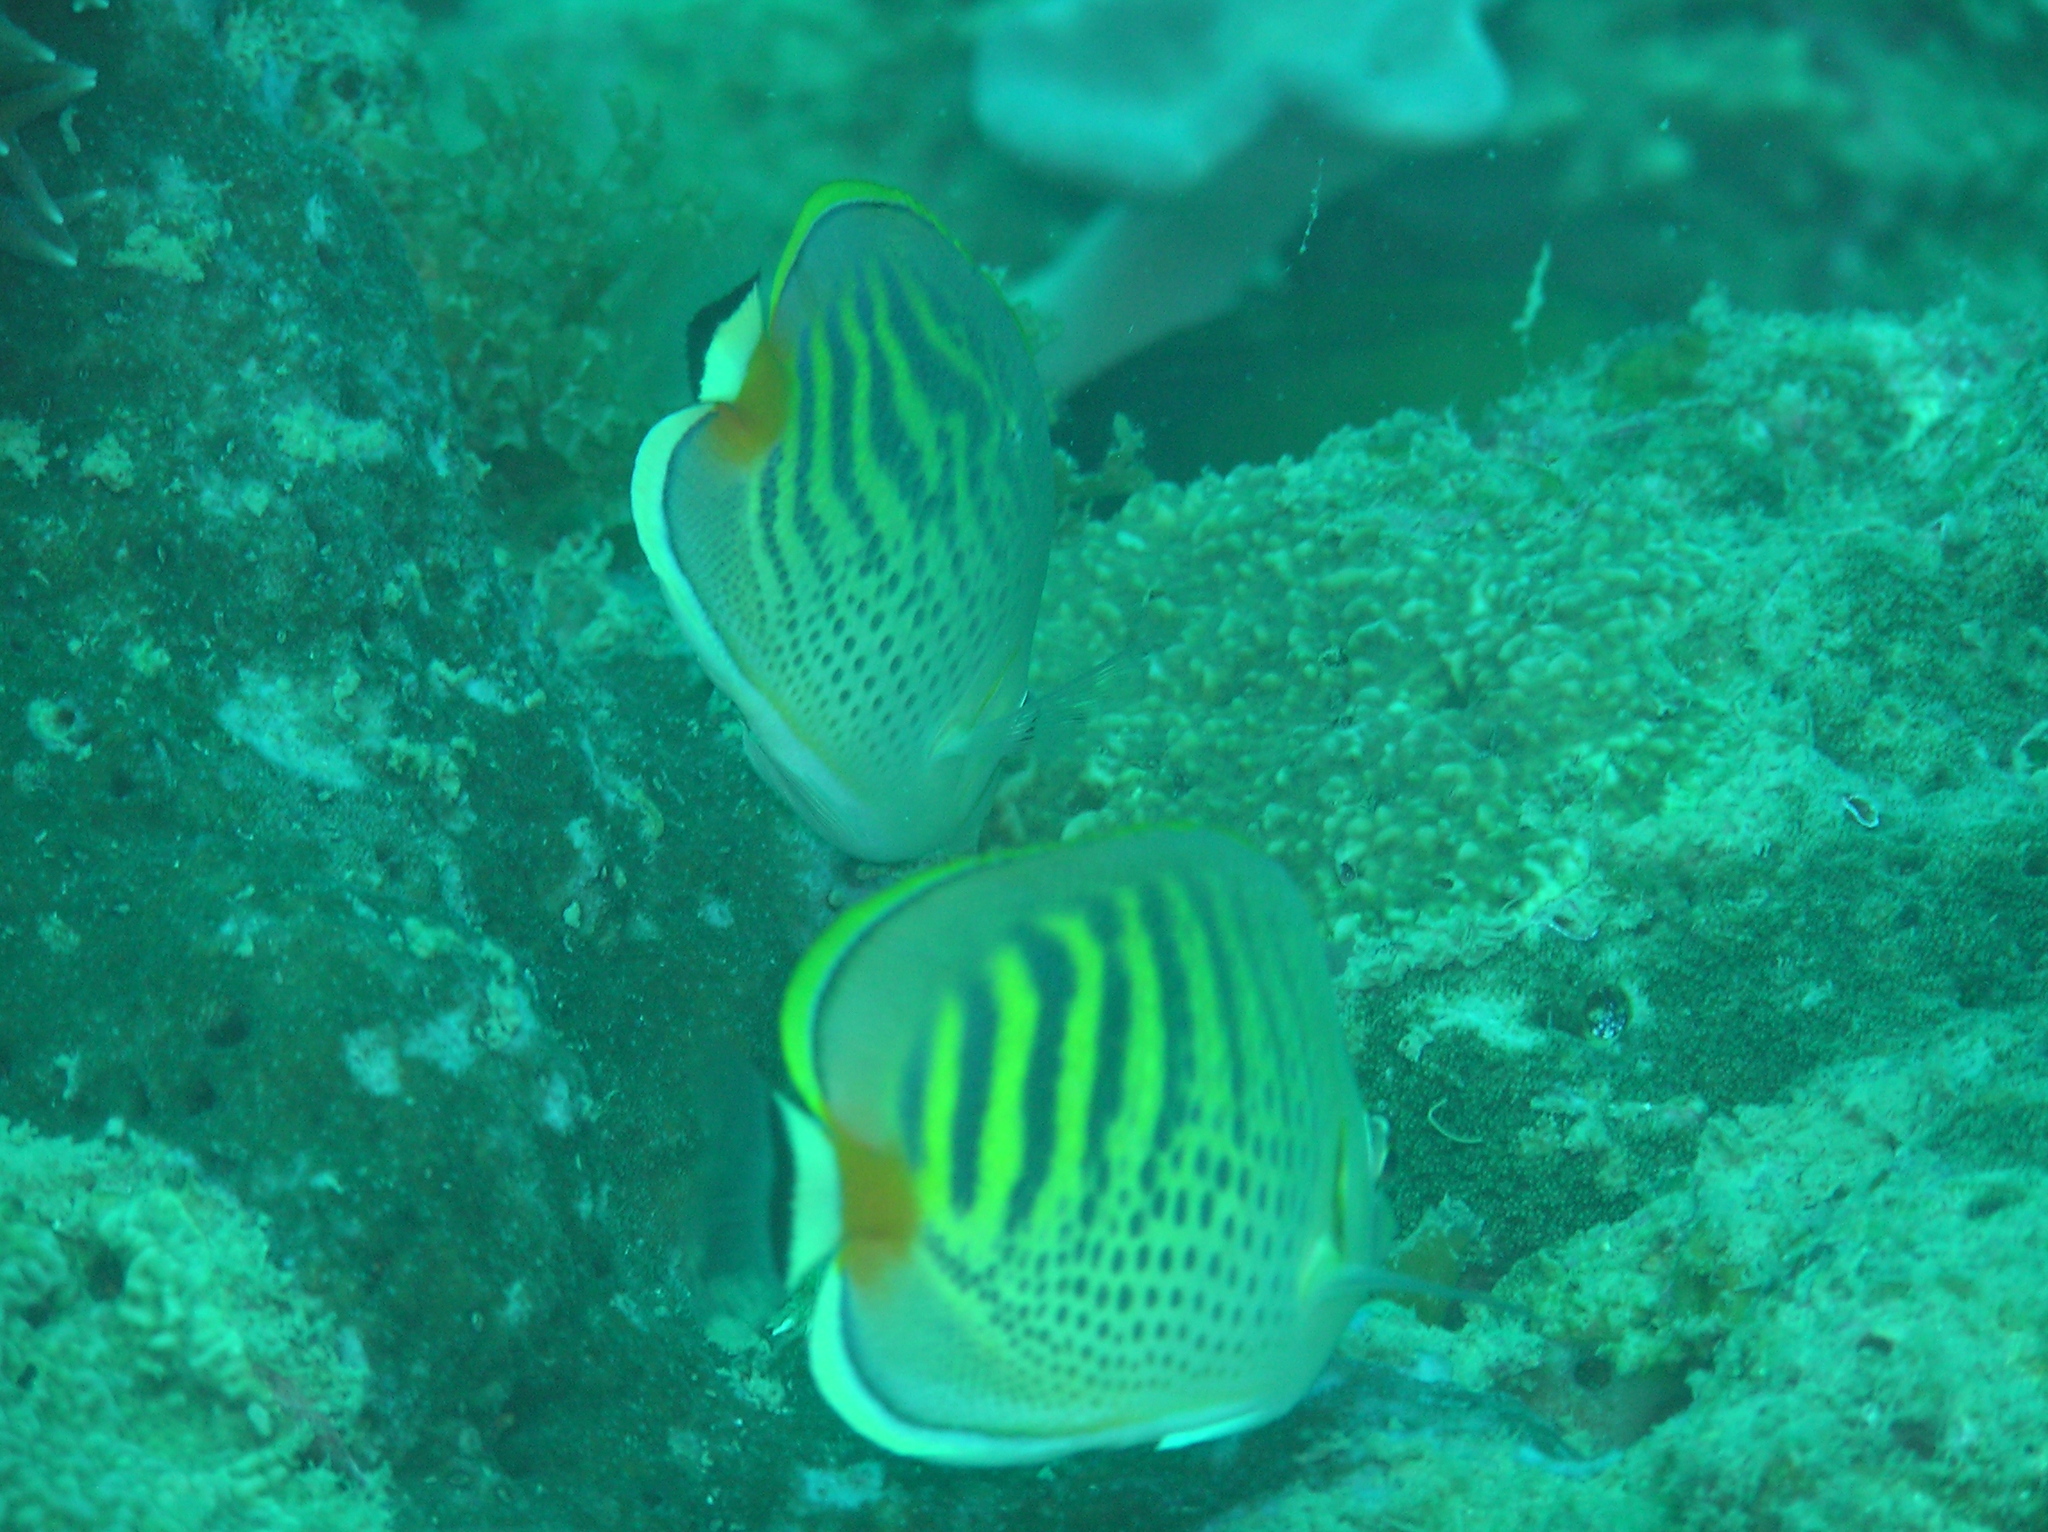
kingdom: Animalia
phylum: Chordata
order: Perciformes
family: Chaetodontidae
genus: Chaetodon
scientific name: Chaetodon punctatofasciatus
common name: Spot-banded butterflyfish
